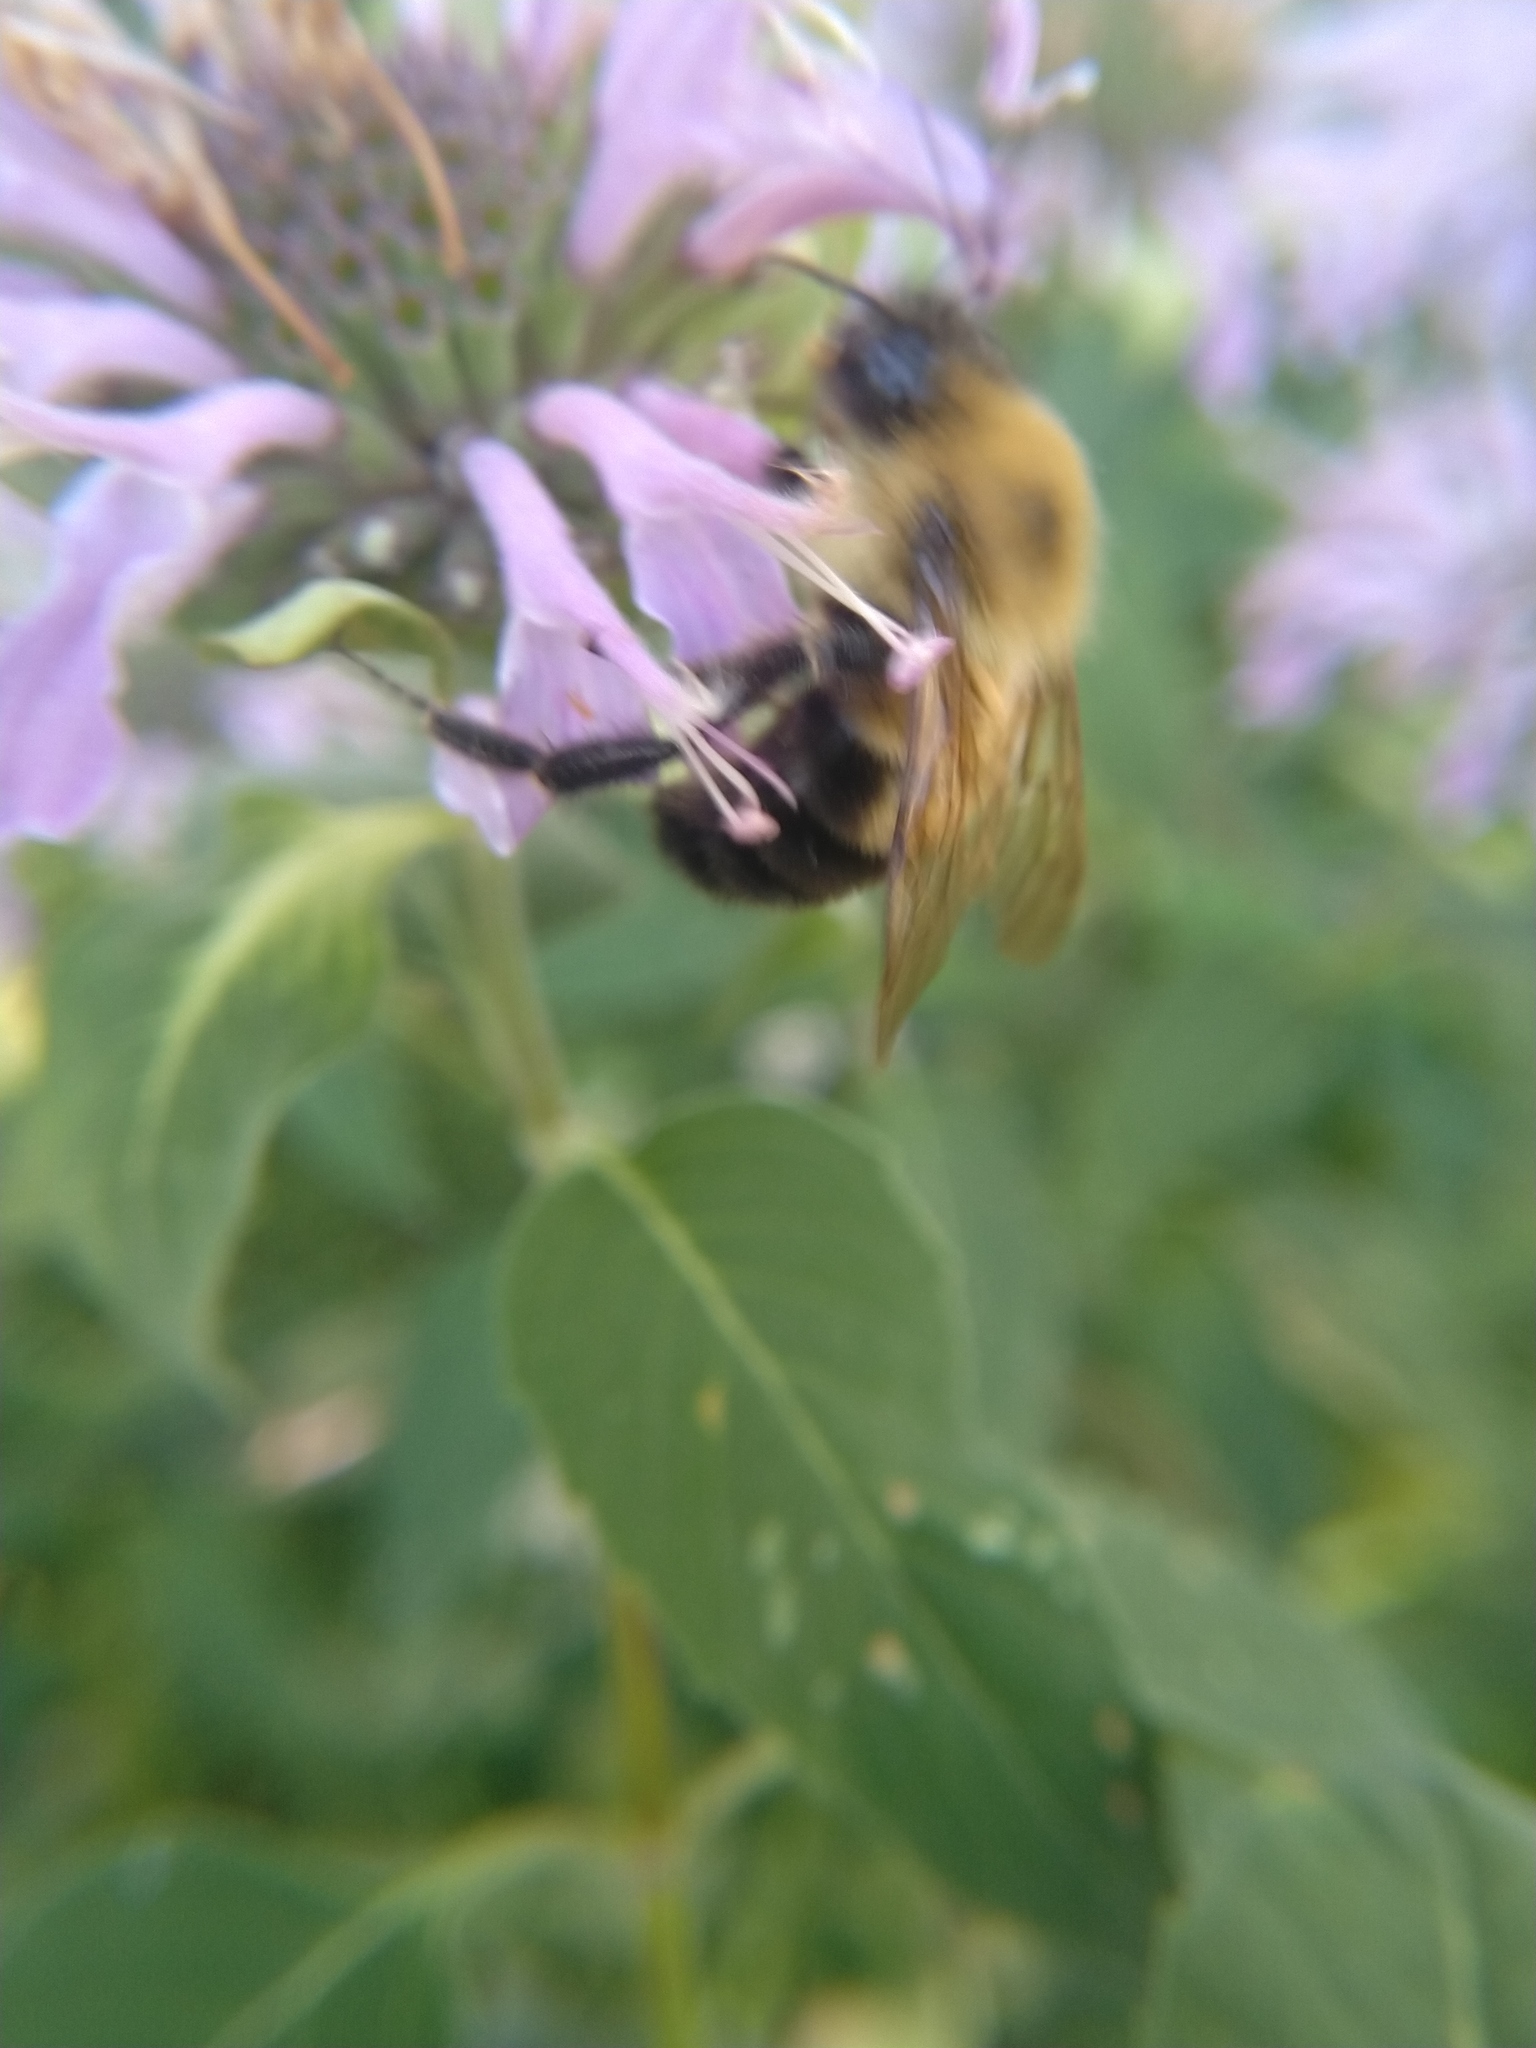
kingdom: Animalia
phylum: Arthropoda
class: Insecta
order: Hymenoptera
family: Apidae
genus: Bombus
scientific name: Bombus bimaculatus
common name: Two-spotted bumble bee
